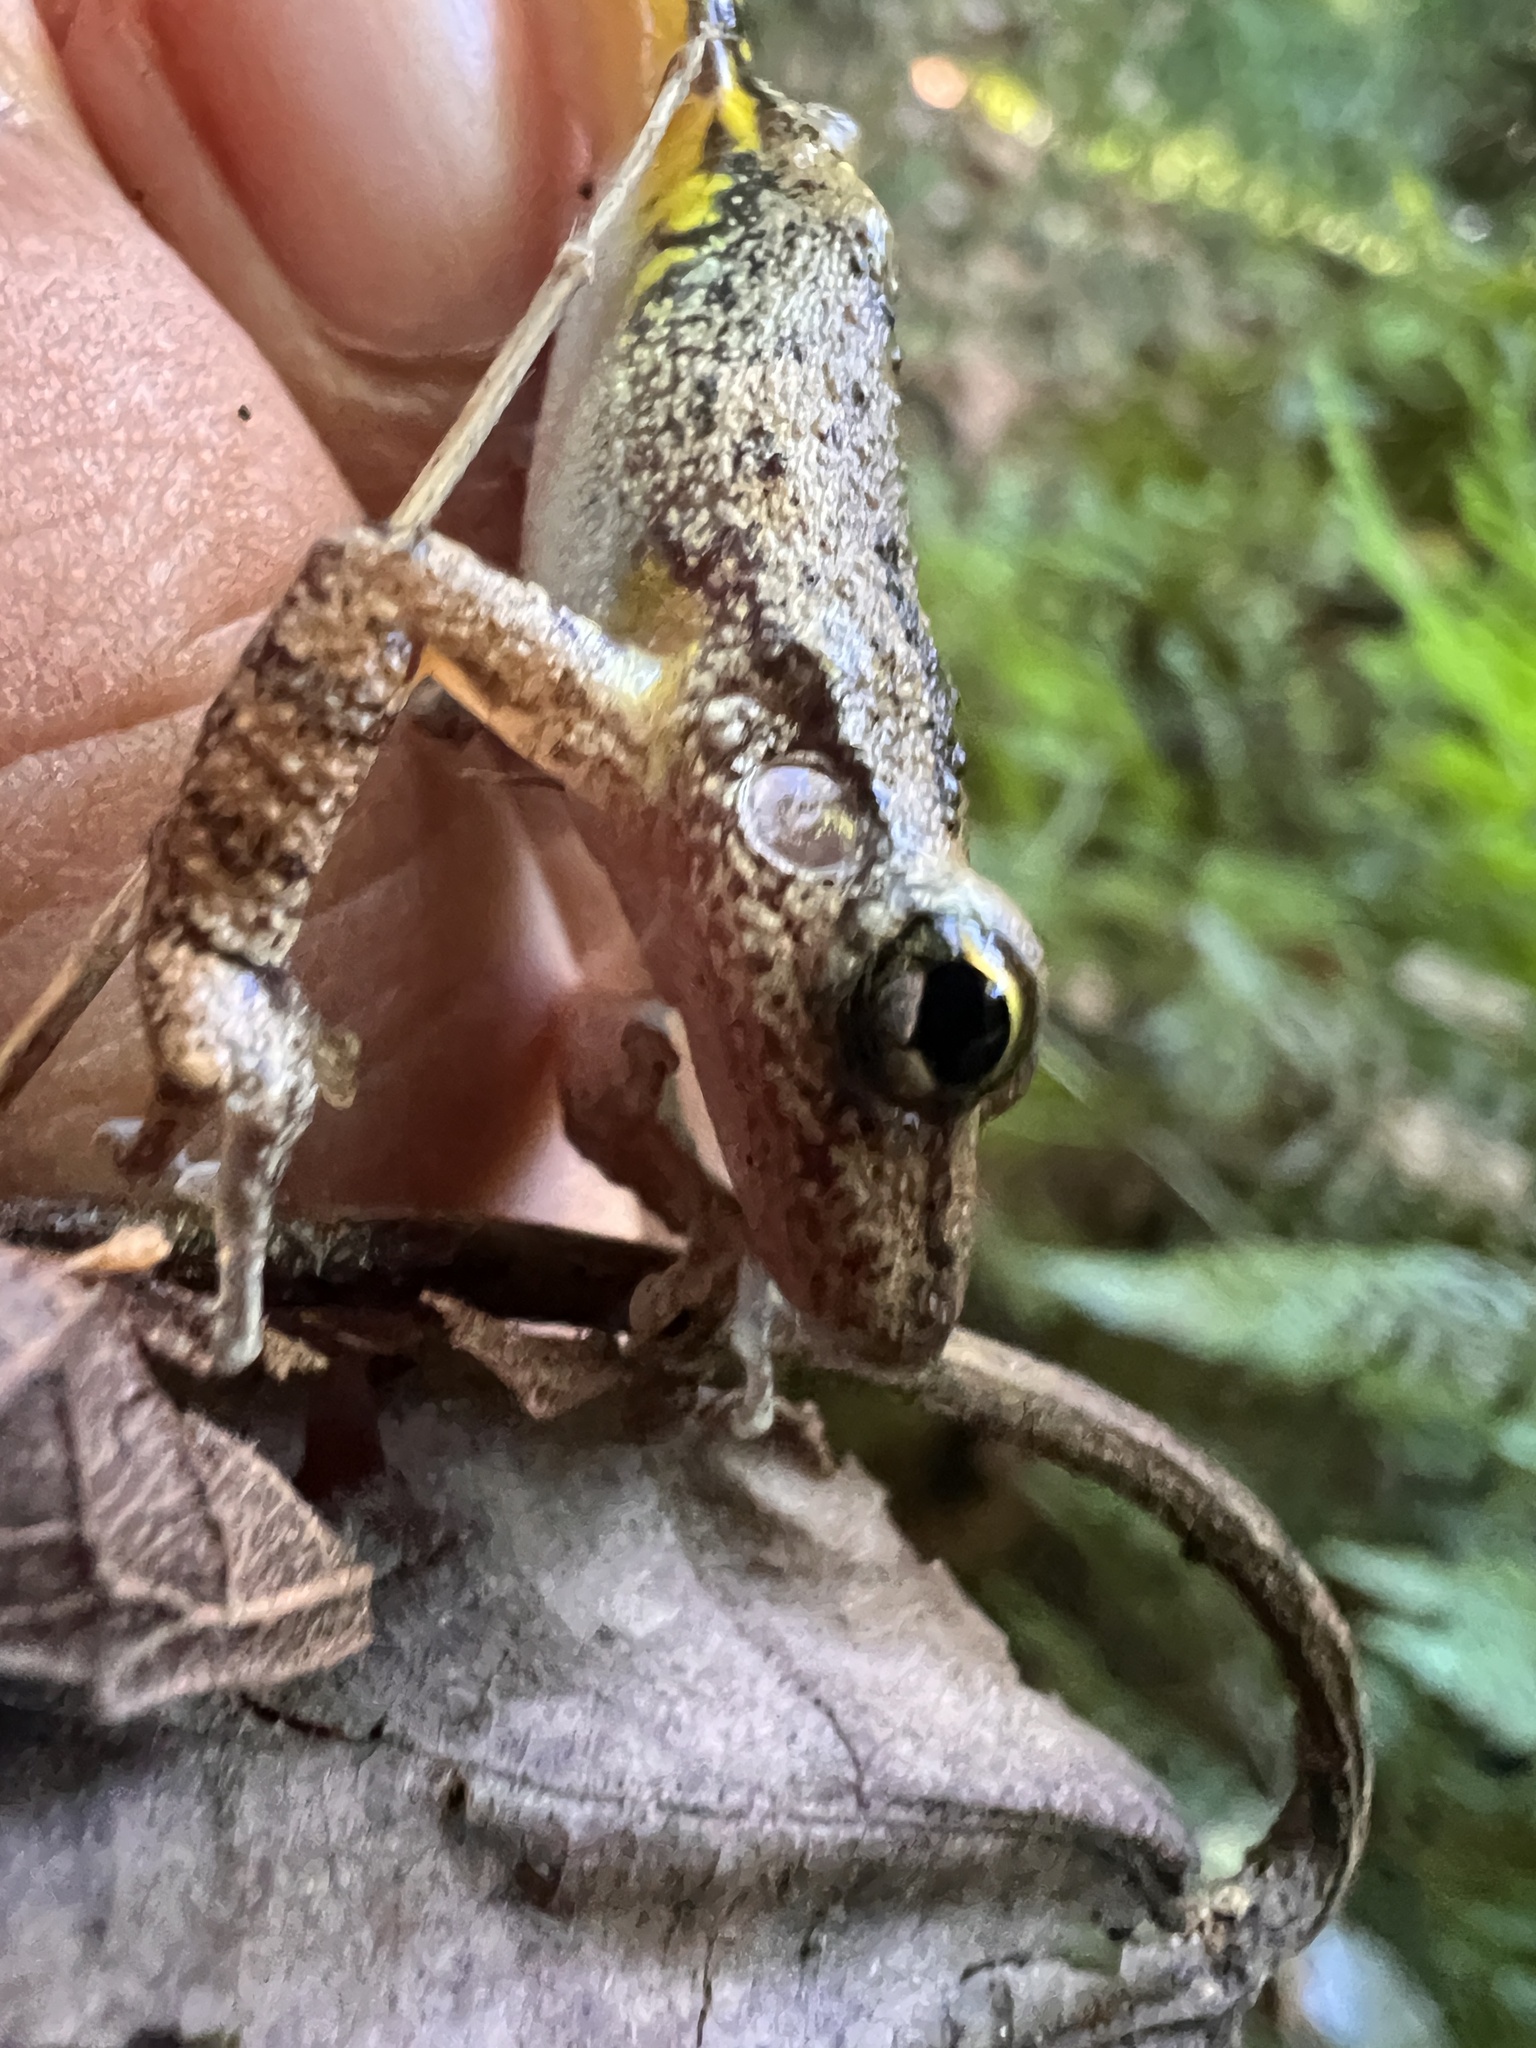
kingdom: Animalia
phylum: Chordata
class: Amphibia
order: Anura
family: Hylidae
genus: Scinax
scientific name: Scinax fuscovarius
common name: Fuscous-blotched treefrog
